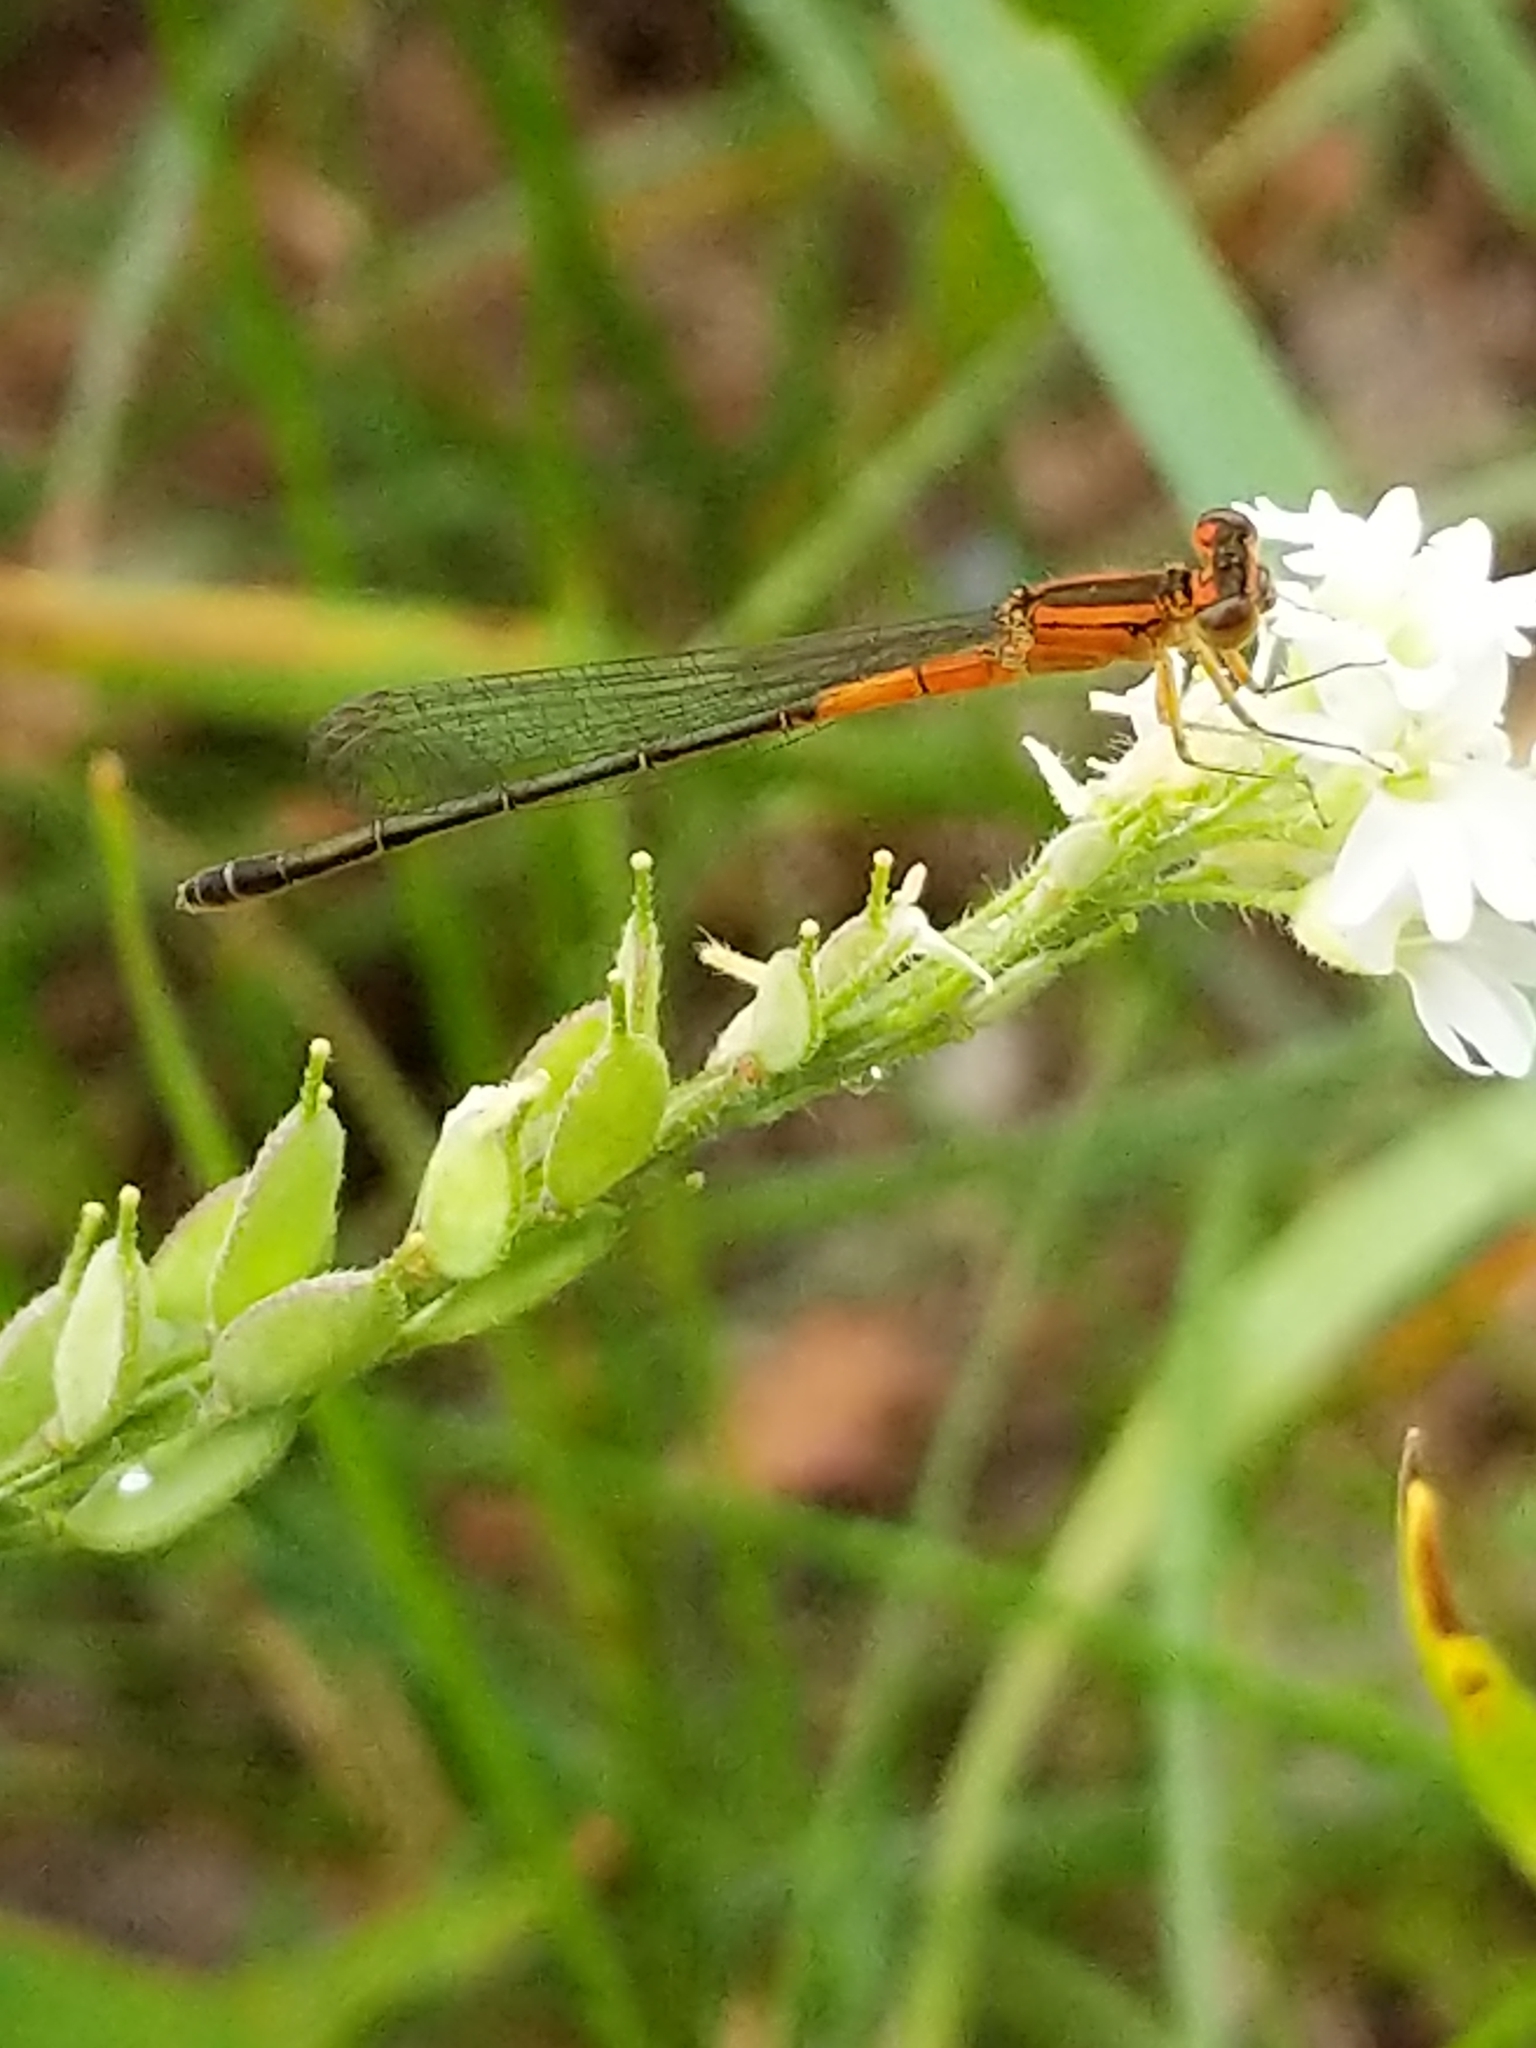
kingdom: Animalia
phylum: Arthropoda
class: Insecta
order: Odonata
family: Coenagrionidae
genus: Ischnura
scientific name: Ischnura verticalis
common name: Eastern forktail
